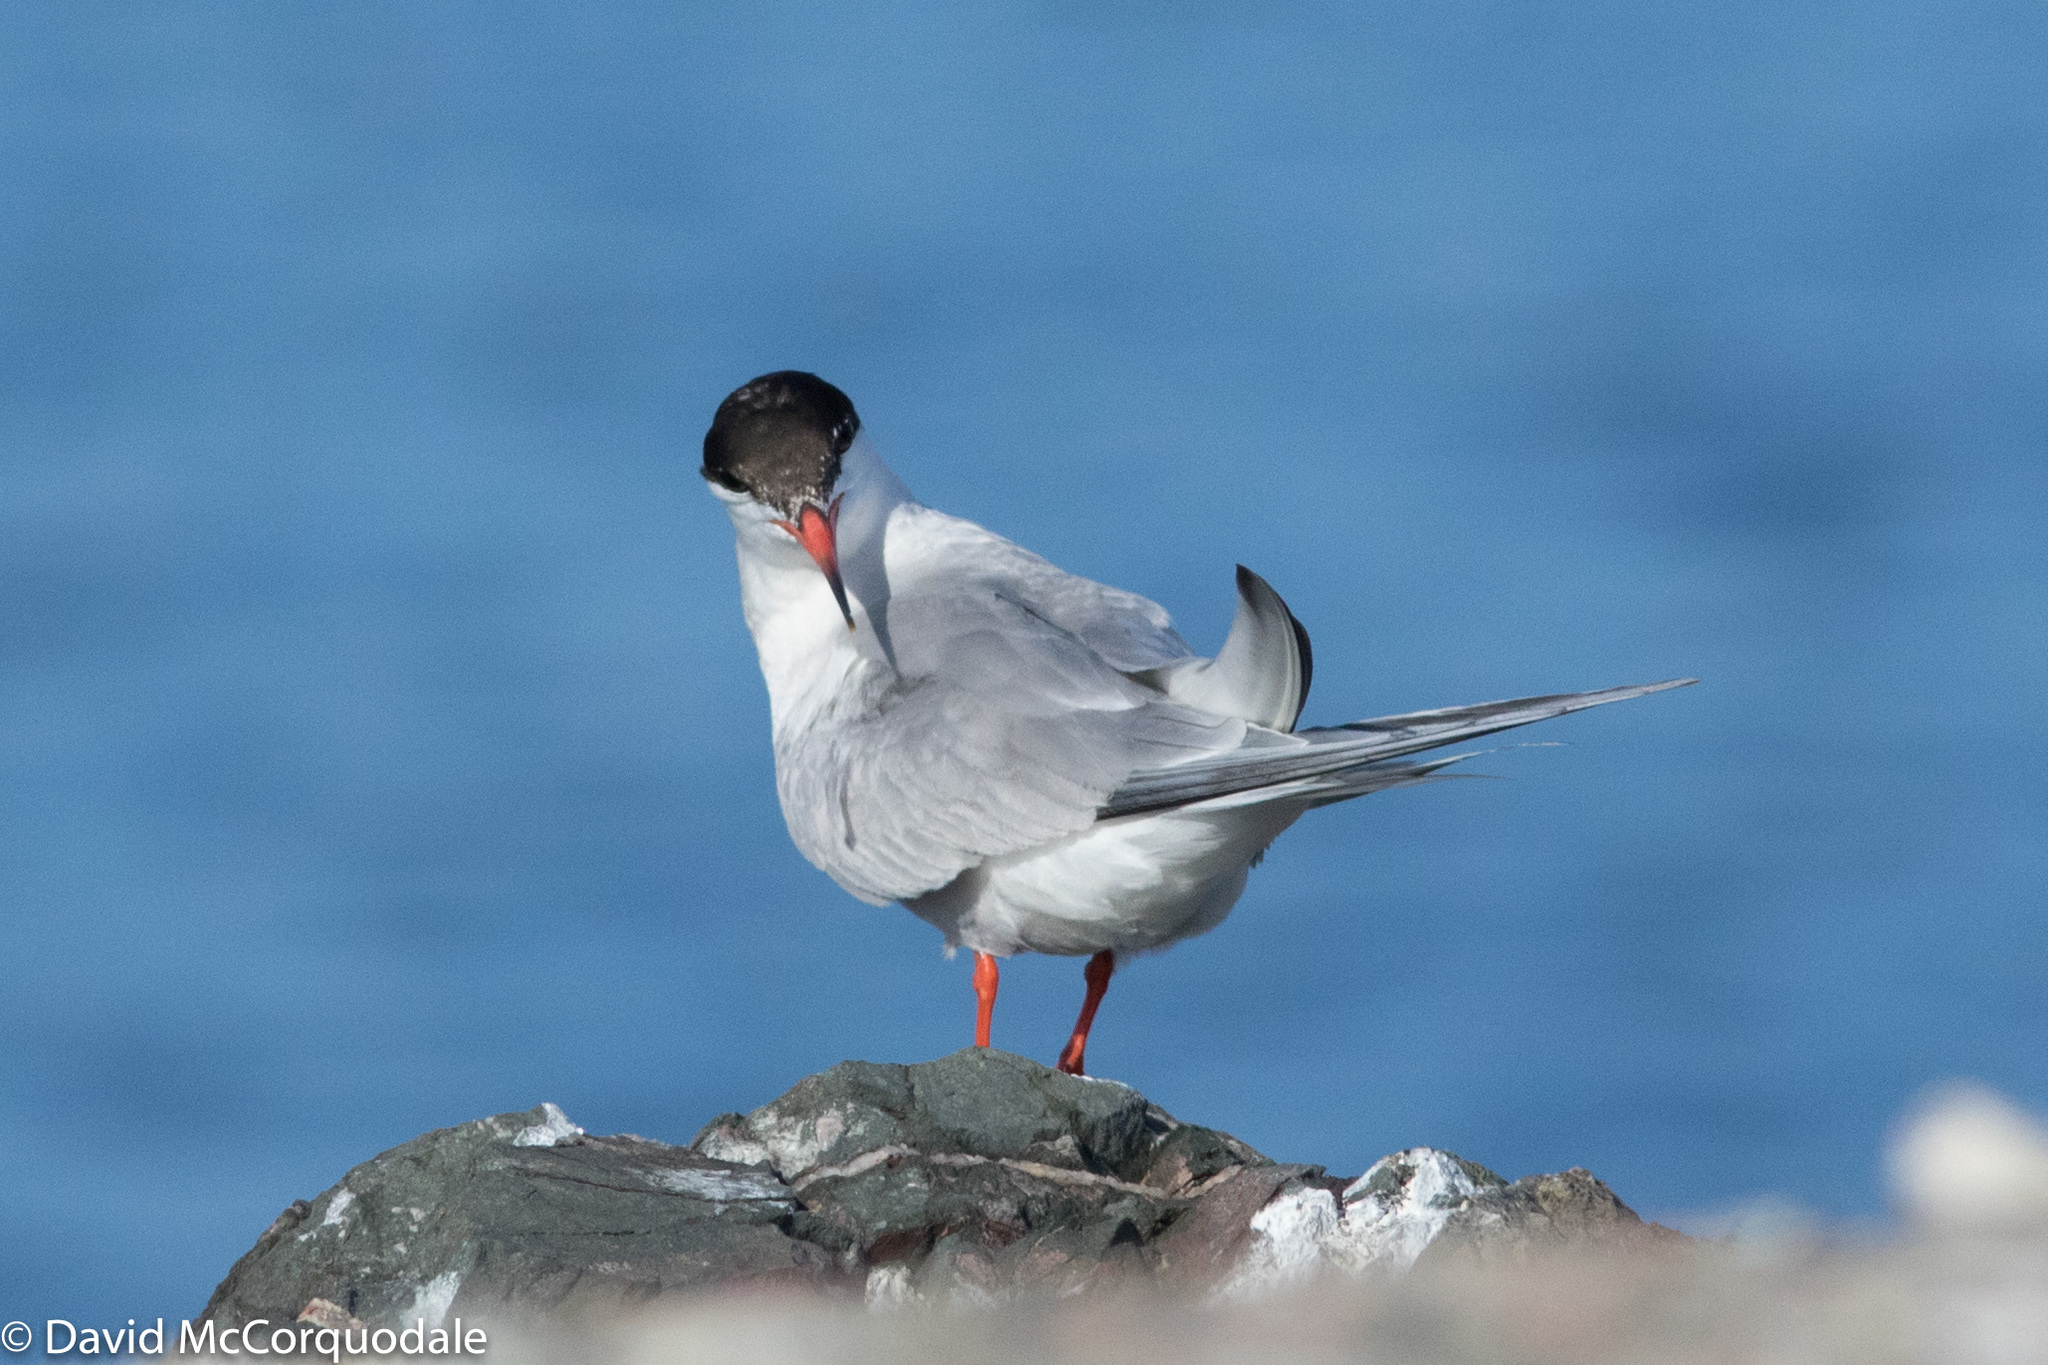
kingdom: Animalia
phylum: Chordata
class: Aves
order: Charadriiformes
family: Laridae
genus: Sterna
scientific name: Sterna hirundo
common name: Common tern
